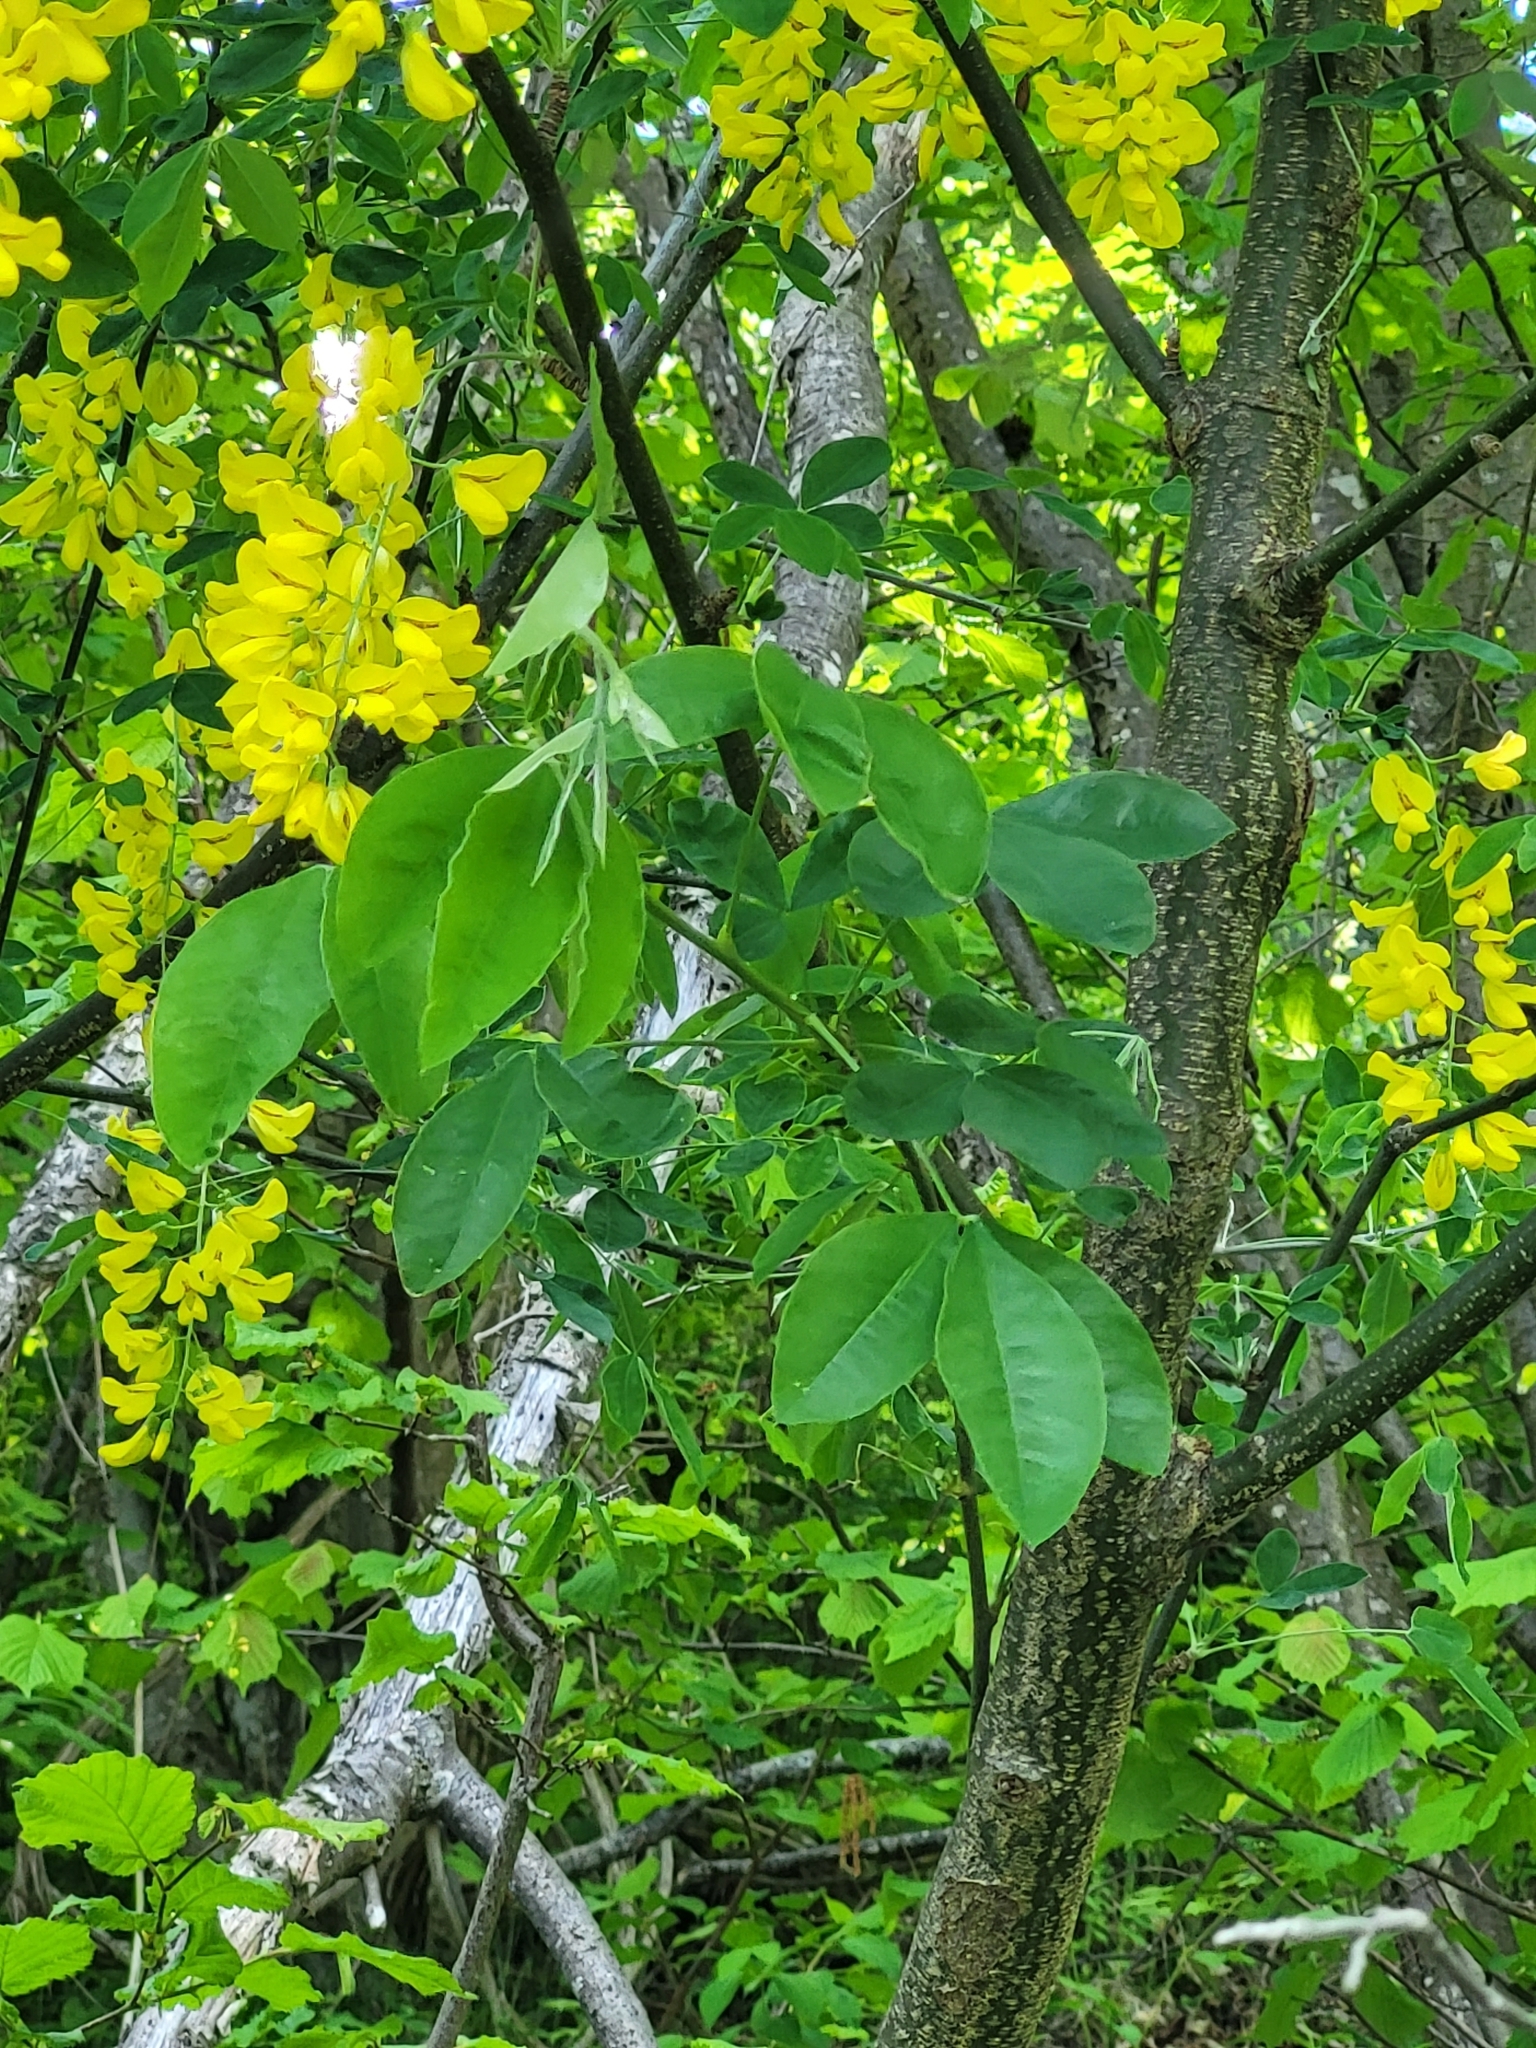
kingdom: Plantae
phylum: Tracheophyta
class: Magnoliopsida
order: Fabales
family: Fabaceae
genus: Laburnum
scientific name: Laburnum anagyroides
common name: Laburnum
